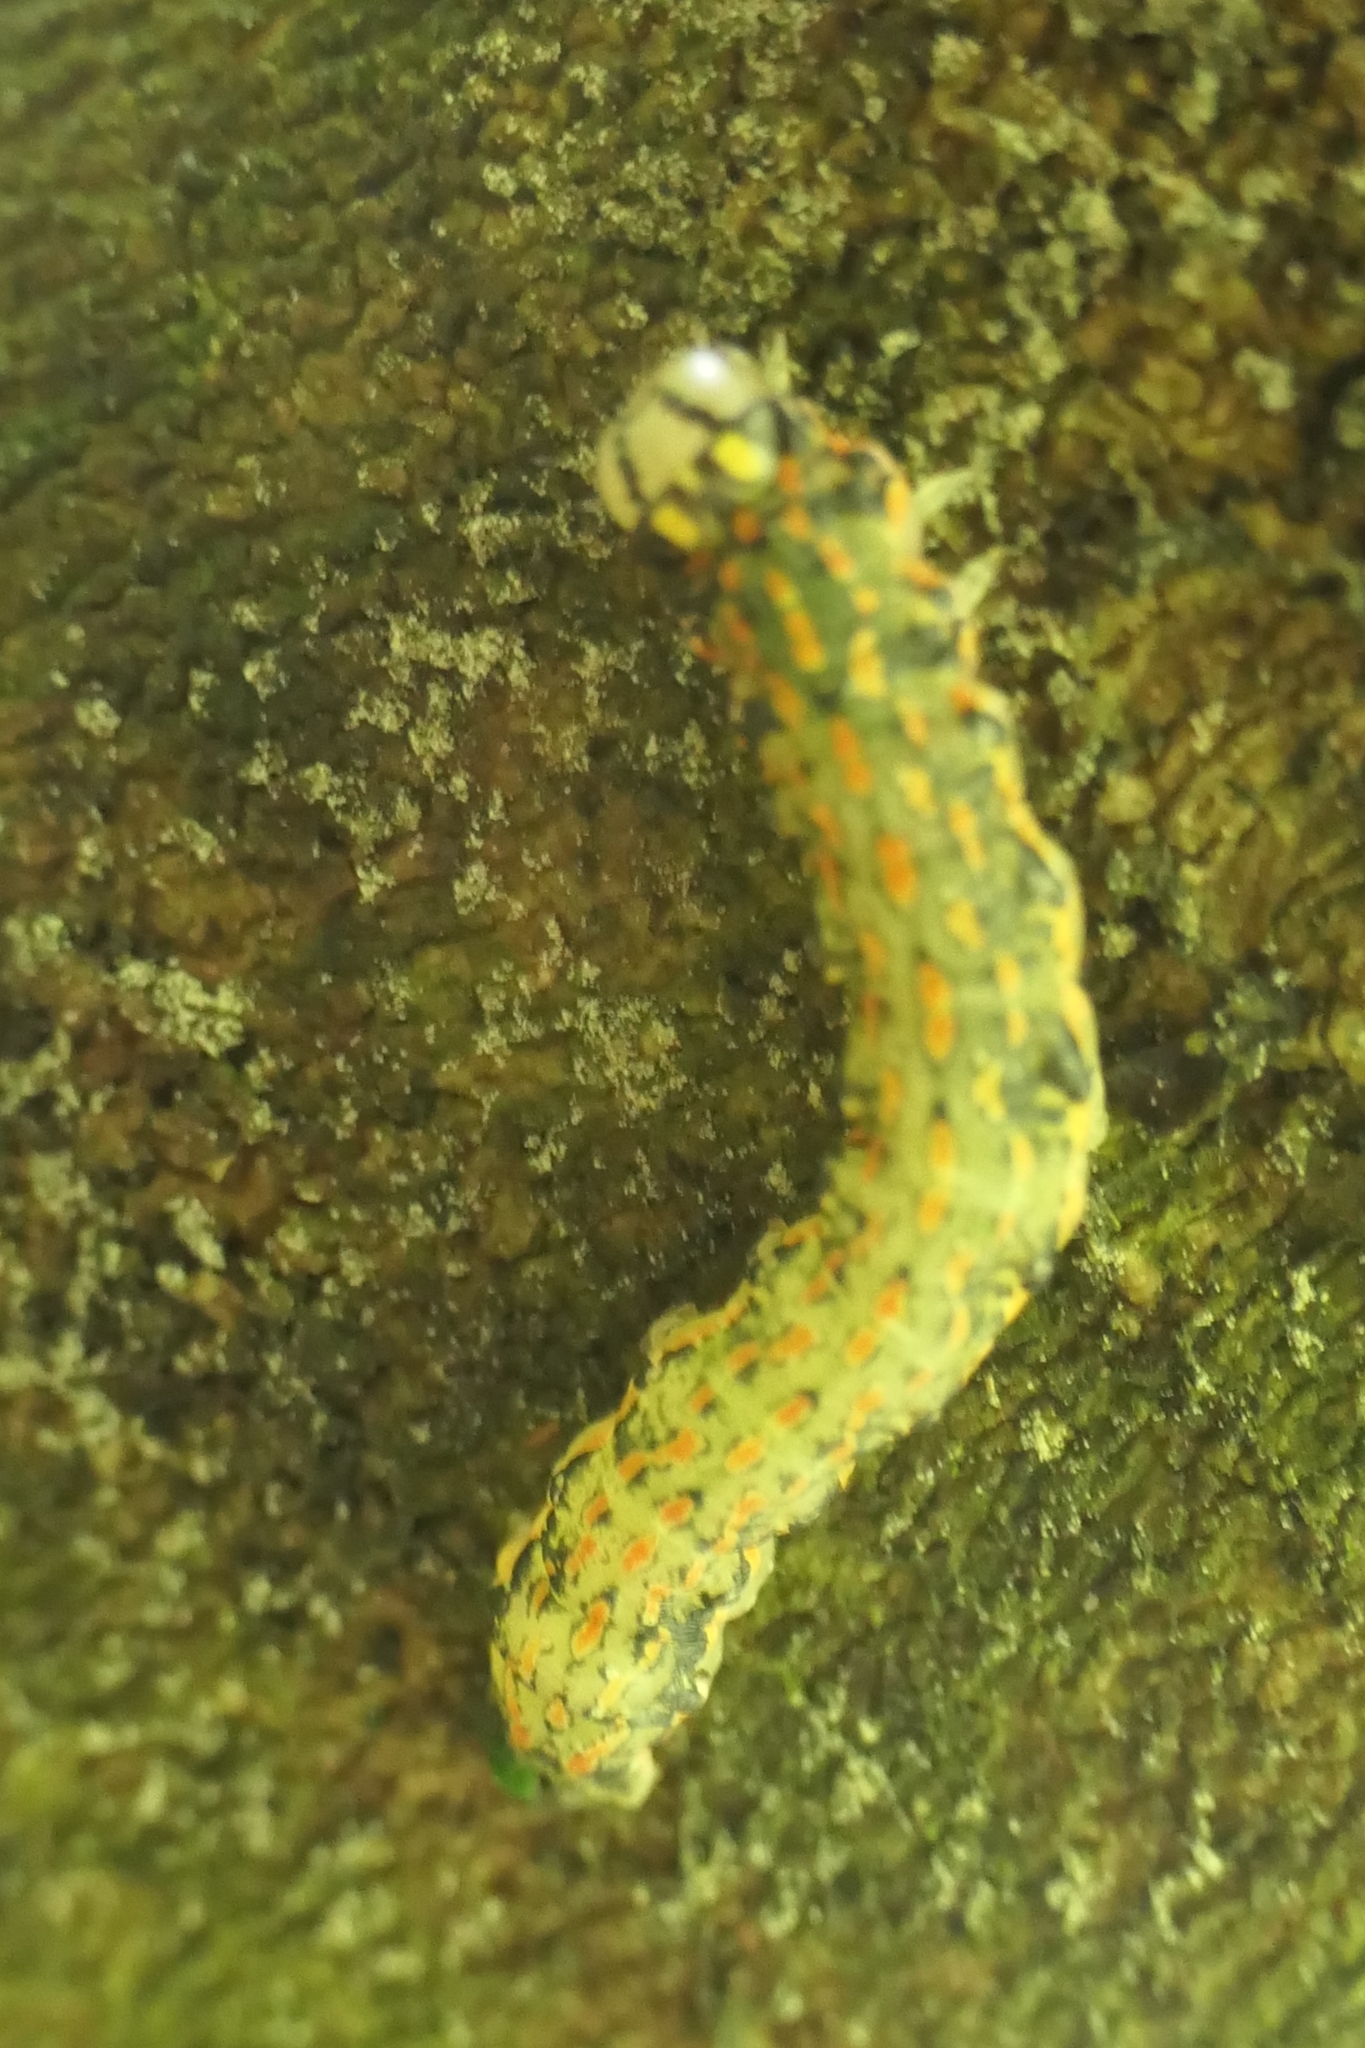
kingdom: Animalia
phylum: Arthropoda
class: Insecta
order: Lepidoptera
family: Noctuidae
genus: Austramathes
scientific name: Austramathes purpurea
